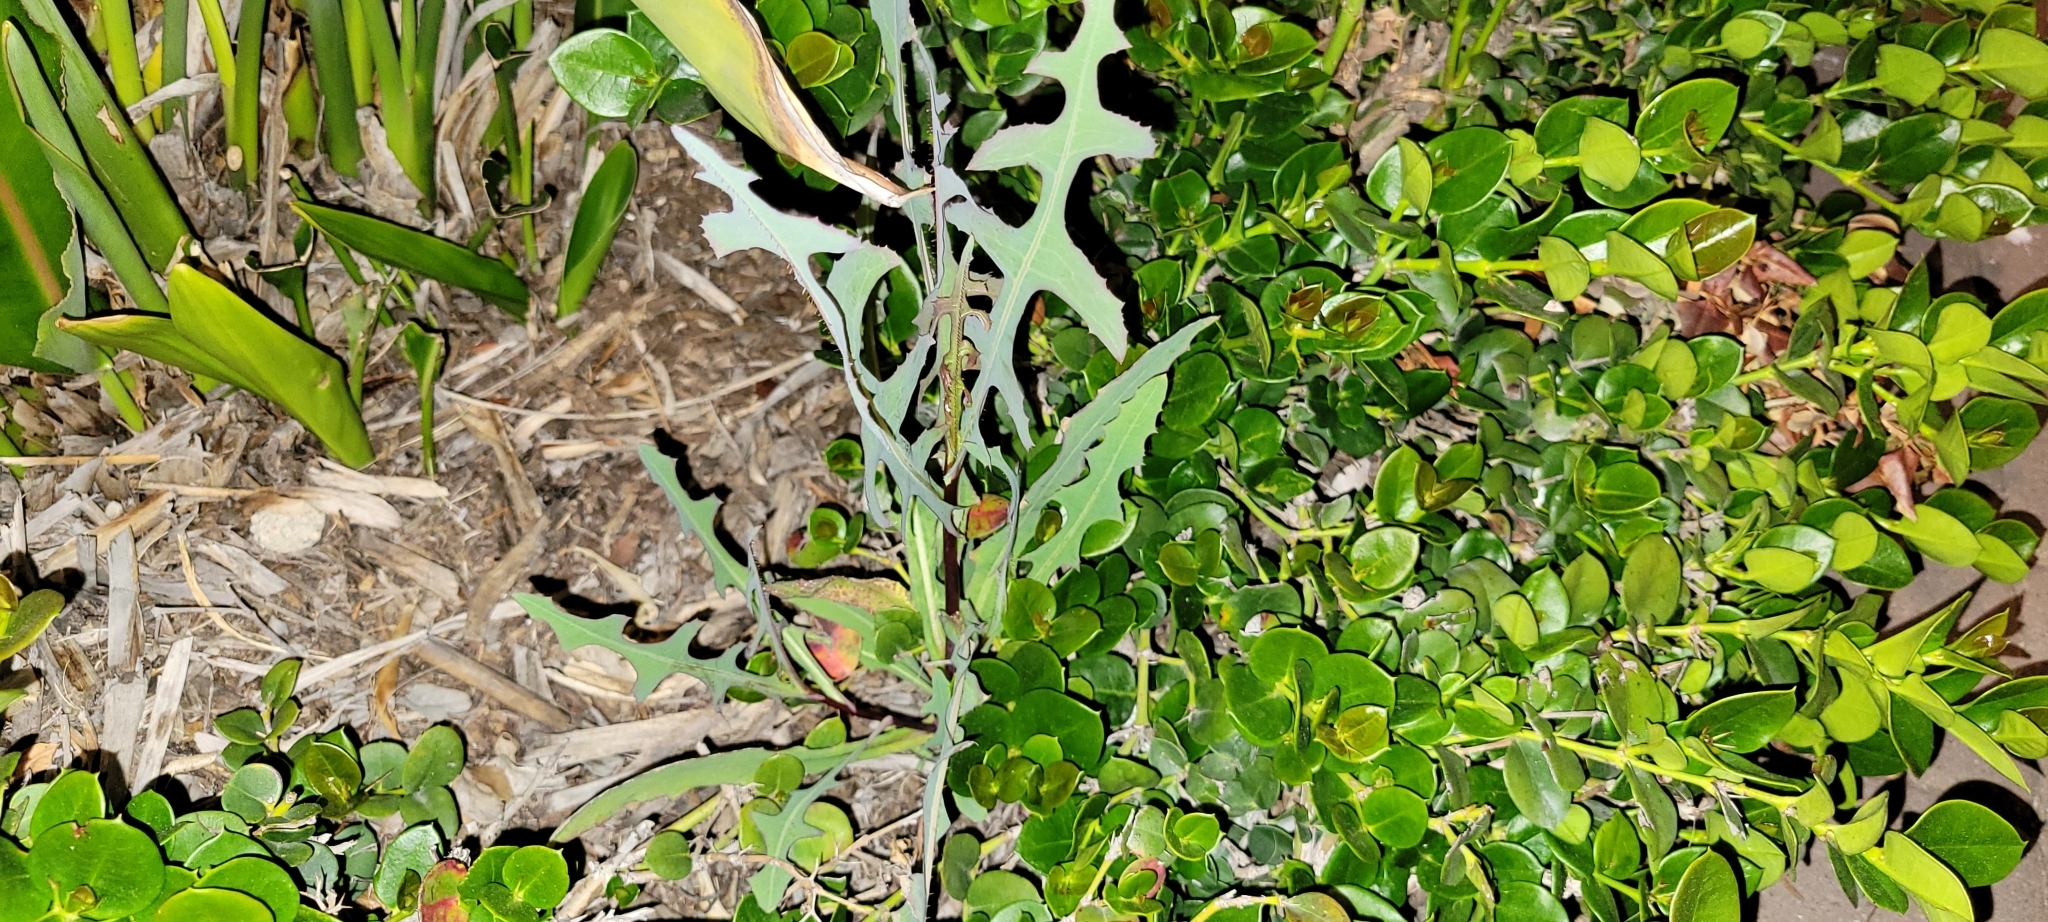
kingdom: Plantae
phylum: Tracheophyta
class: Magnoliopsida
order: Asterales
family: Asteraceae
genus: Lactuca
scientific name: Lactuca serriola
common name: Prickly lettuce
